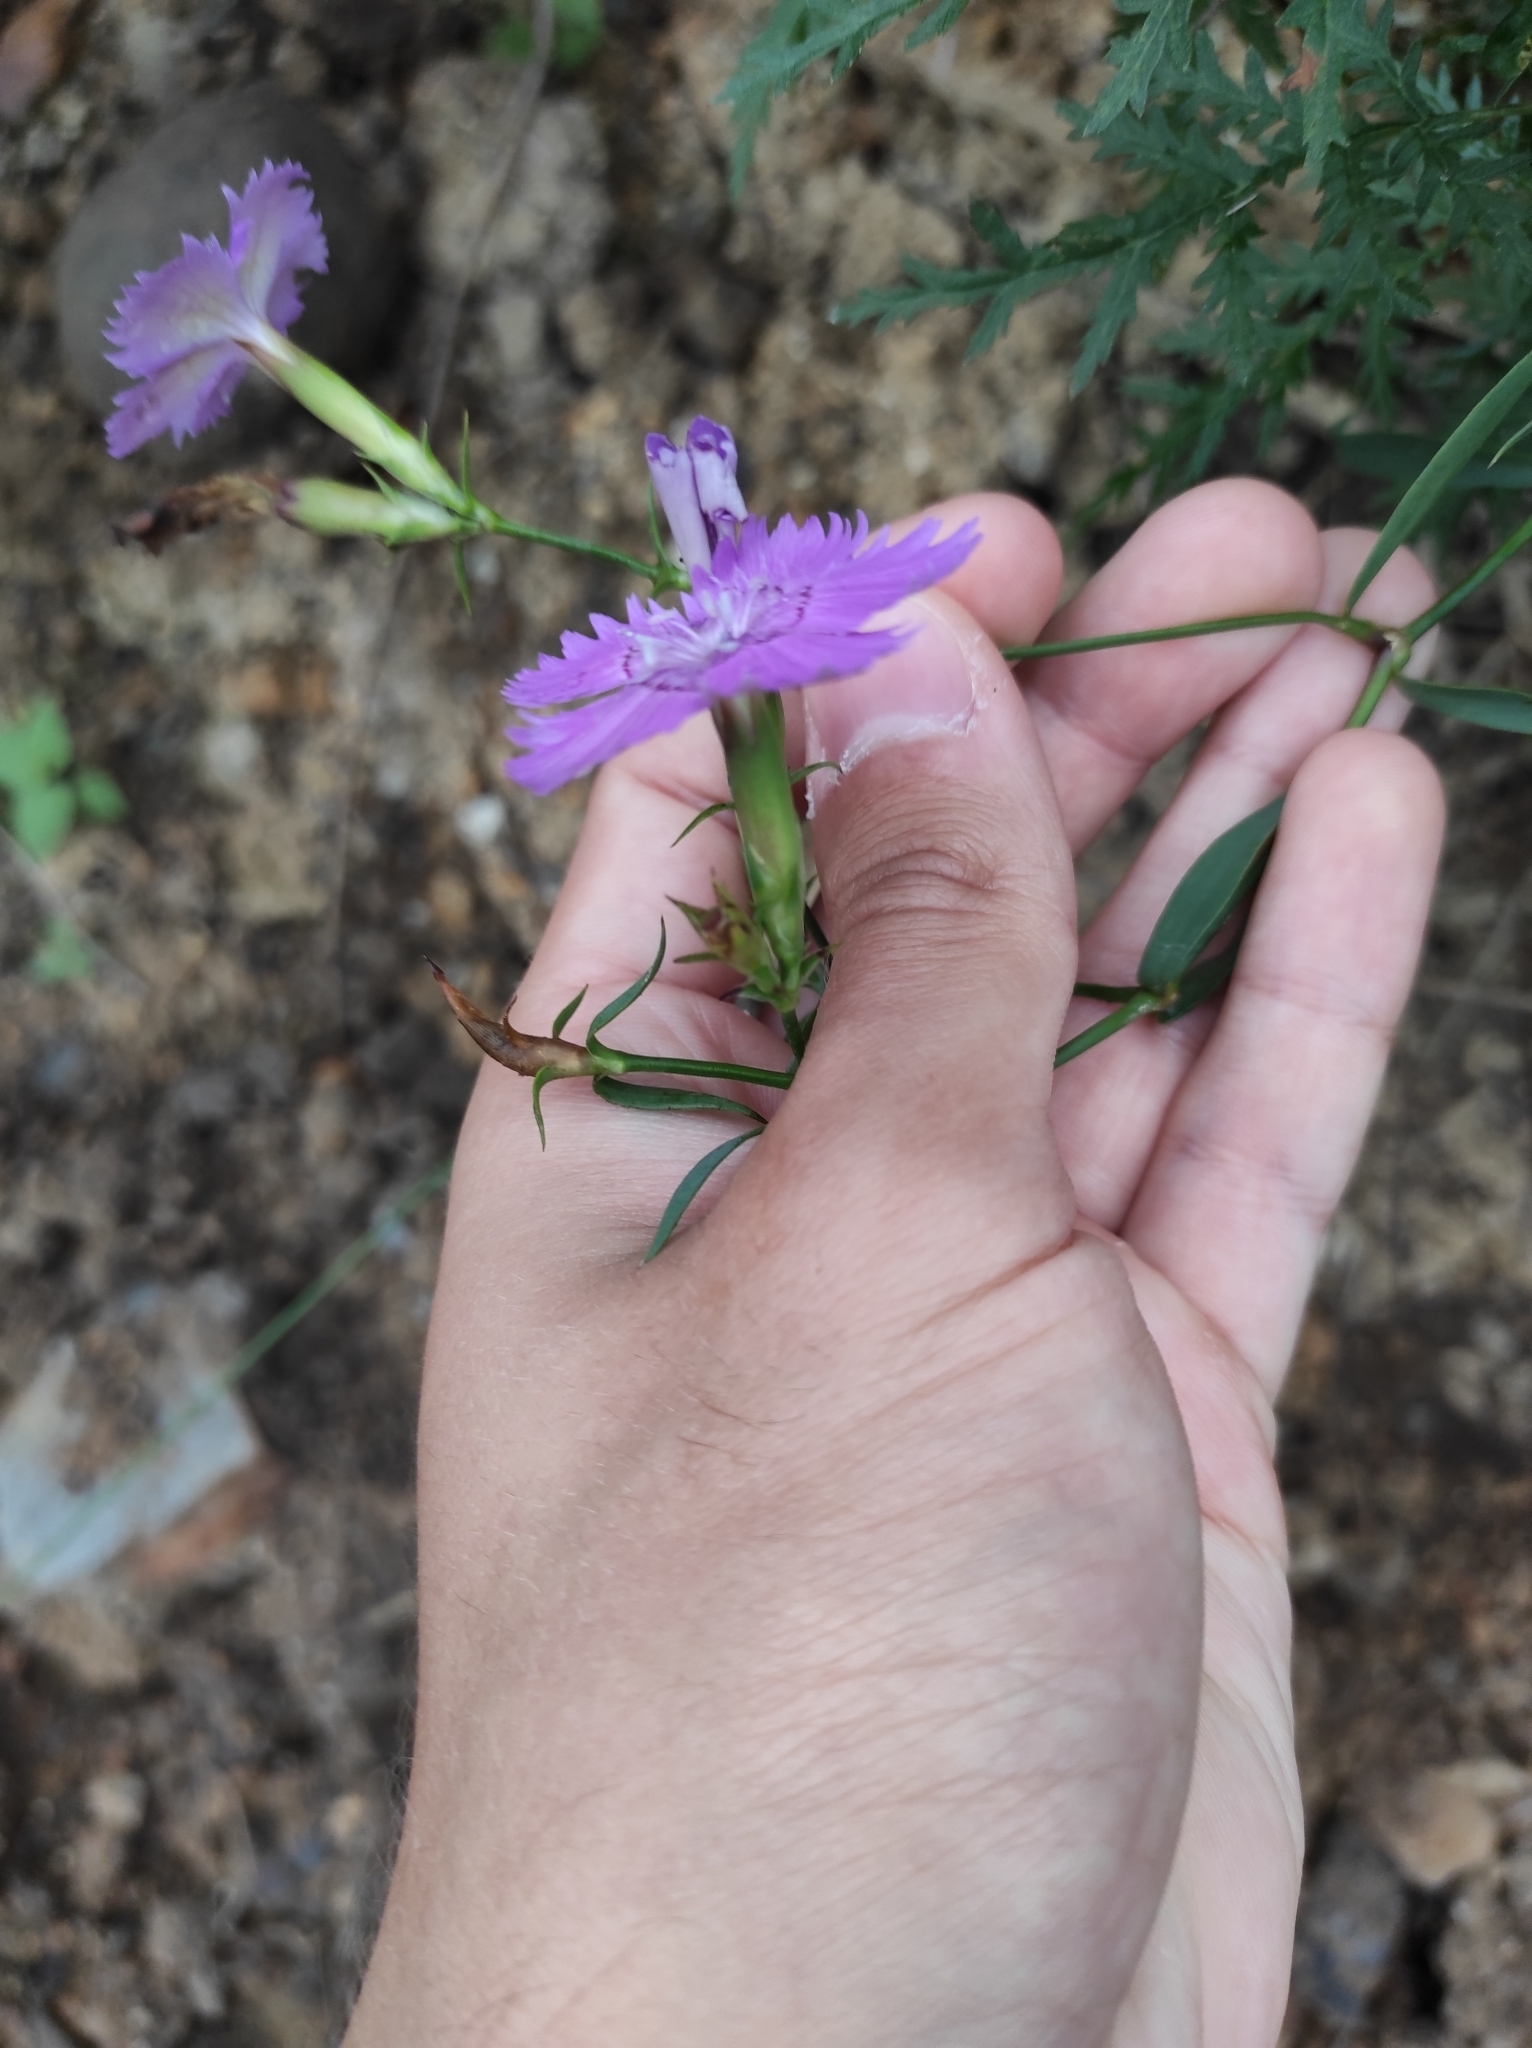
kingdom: Plantae
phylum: Tracheophyta
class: Magnoliopsida
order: Caryophyllales
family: Caryophyllaceae
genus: Dianthus
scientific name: Dianthus chinensis
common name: Rainbow pink
